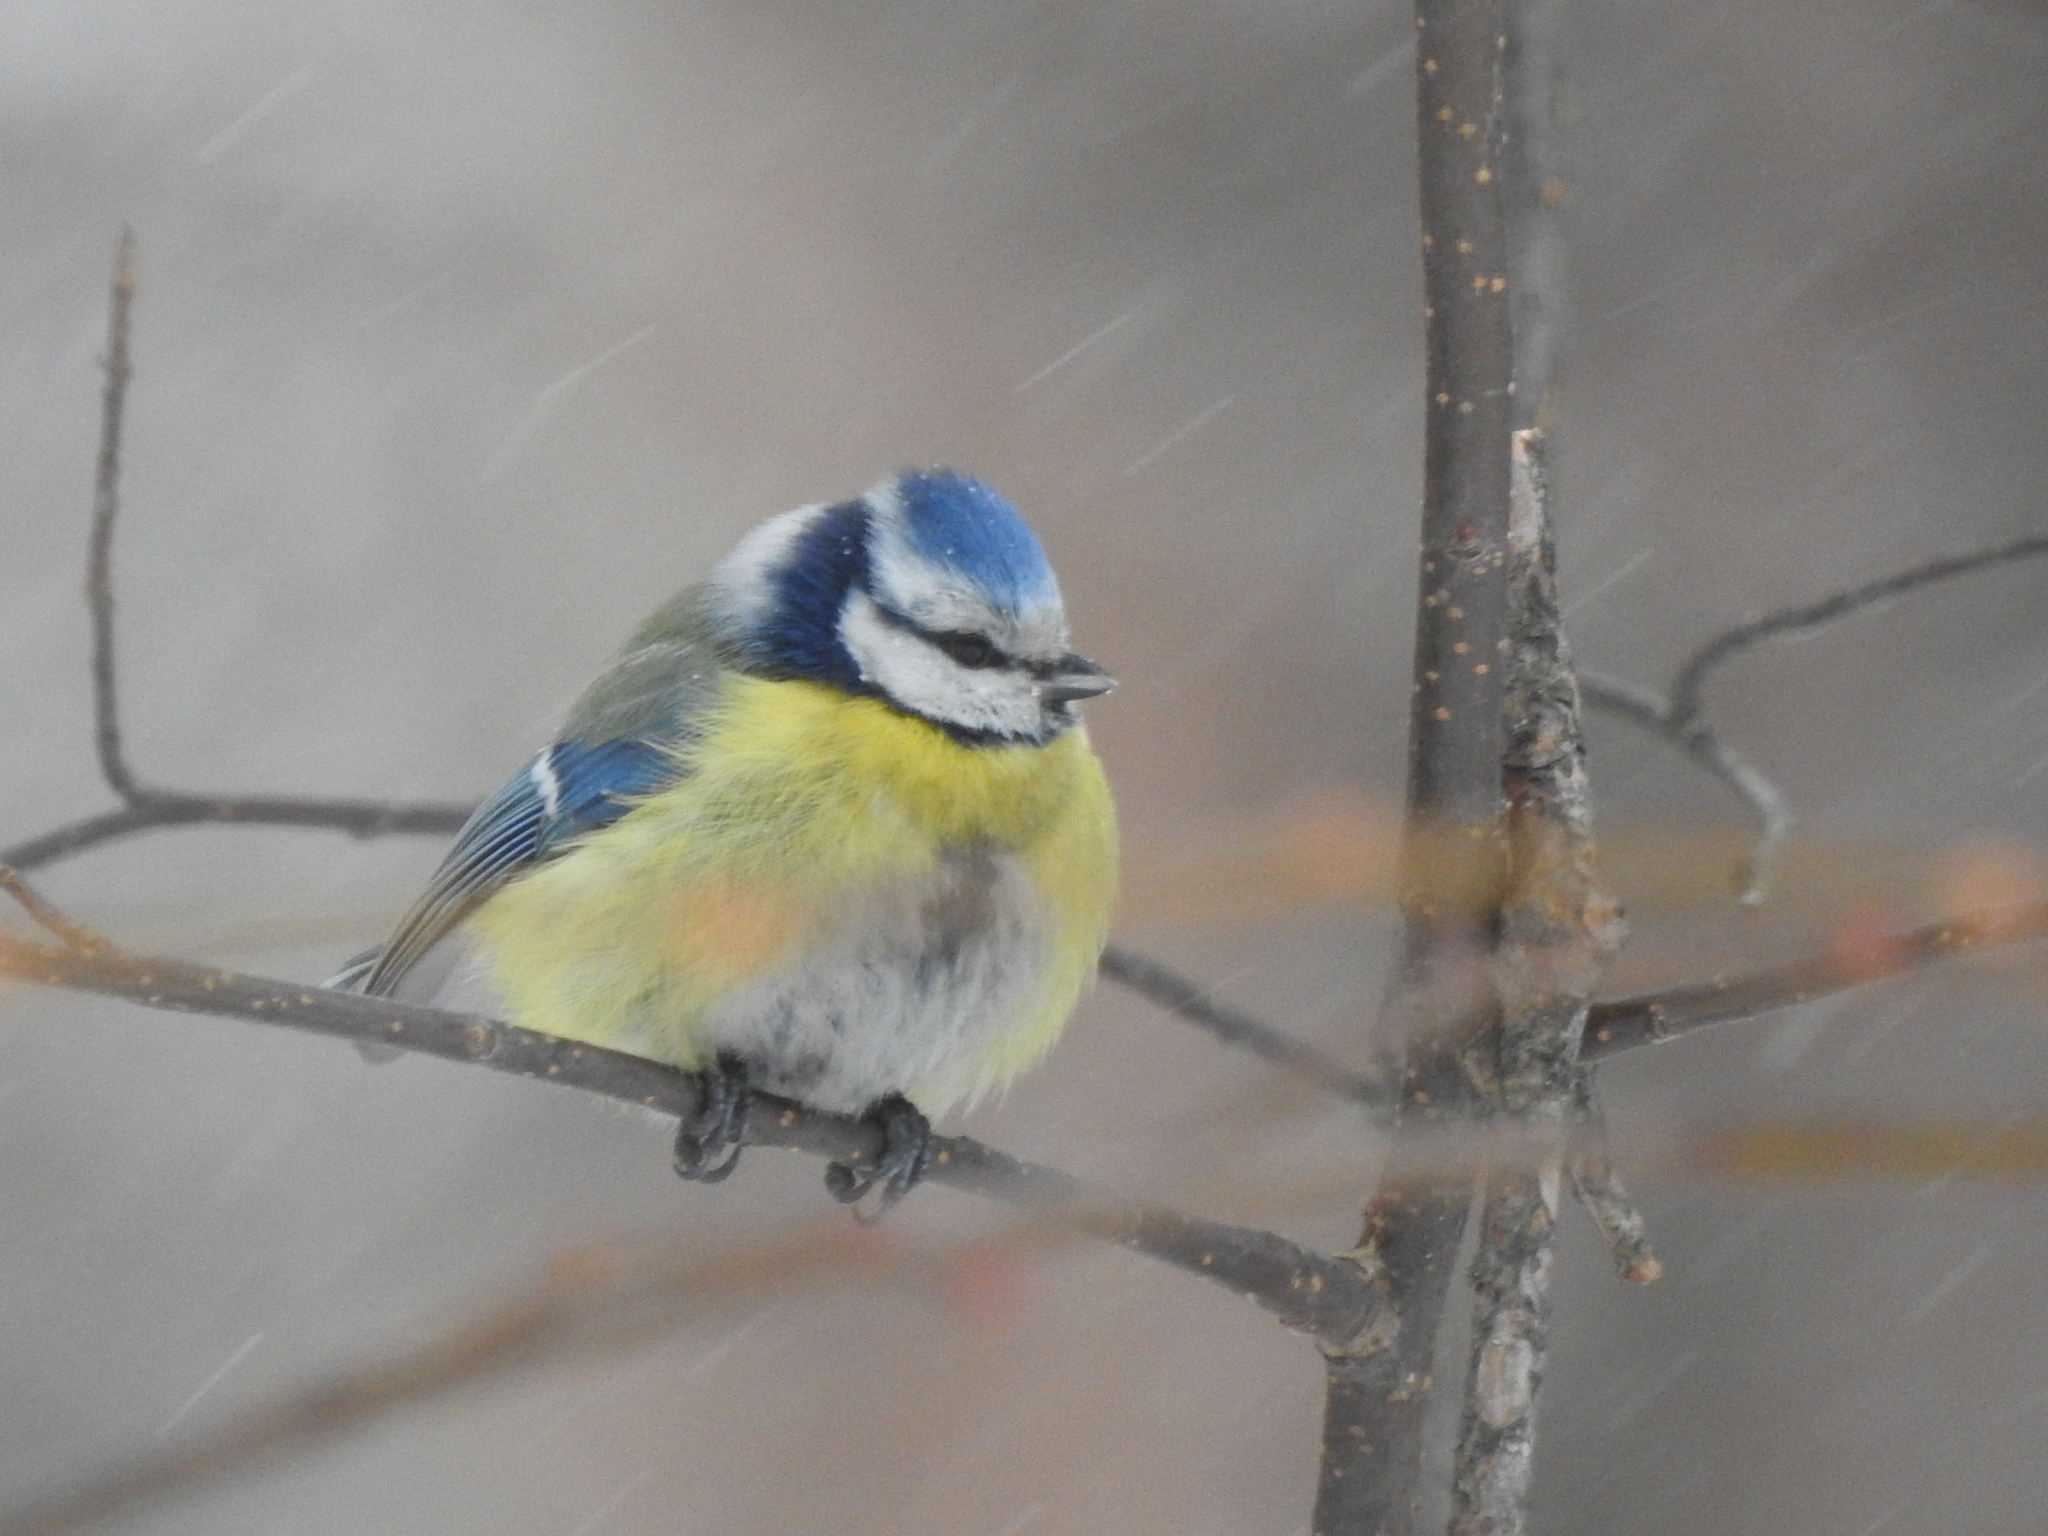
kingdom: Animalia
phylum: Chordata
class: Aves
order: Passeriformes
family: Paridae
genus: Cyanistes
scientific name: Cyanistes caeruleus
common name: Eurasian blue tit
